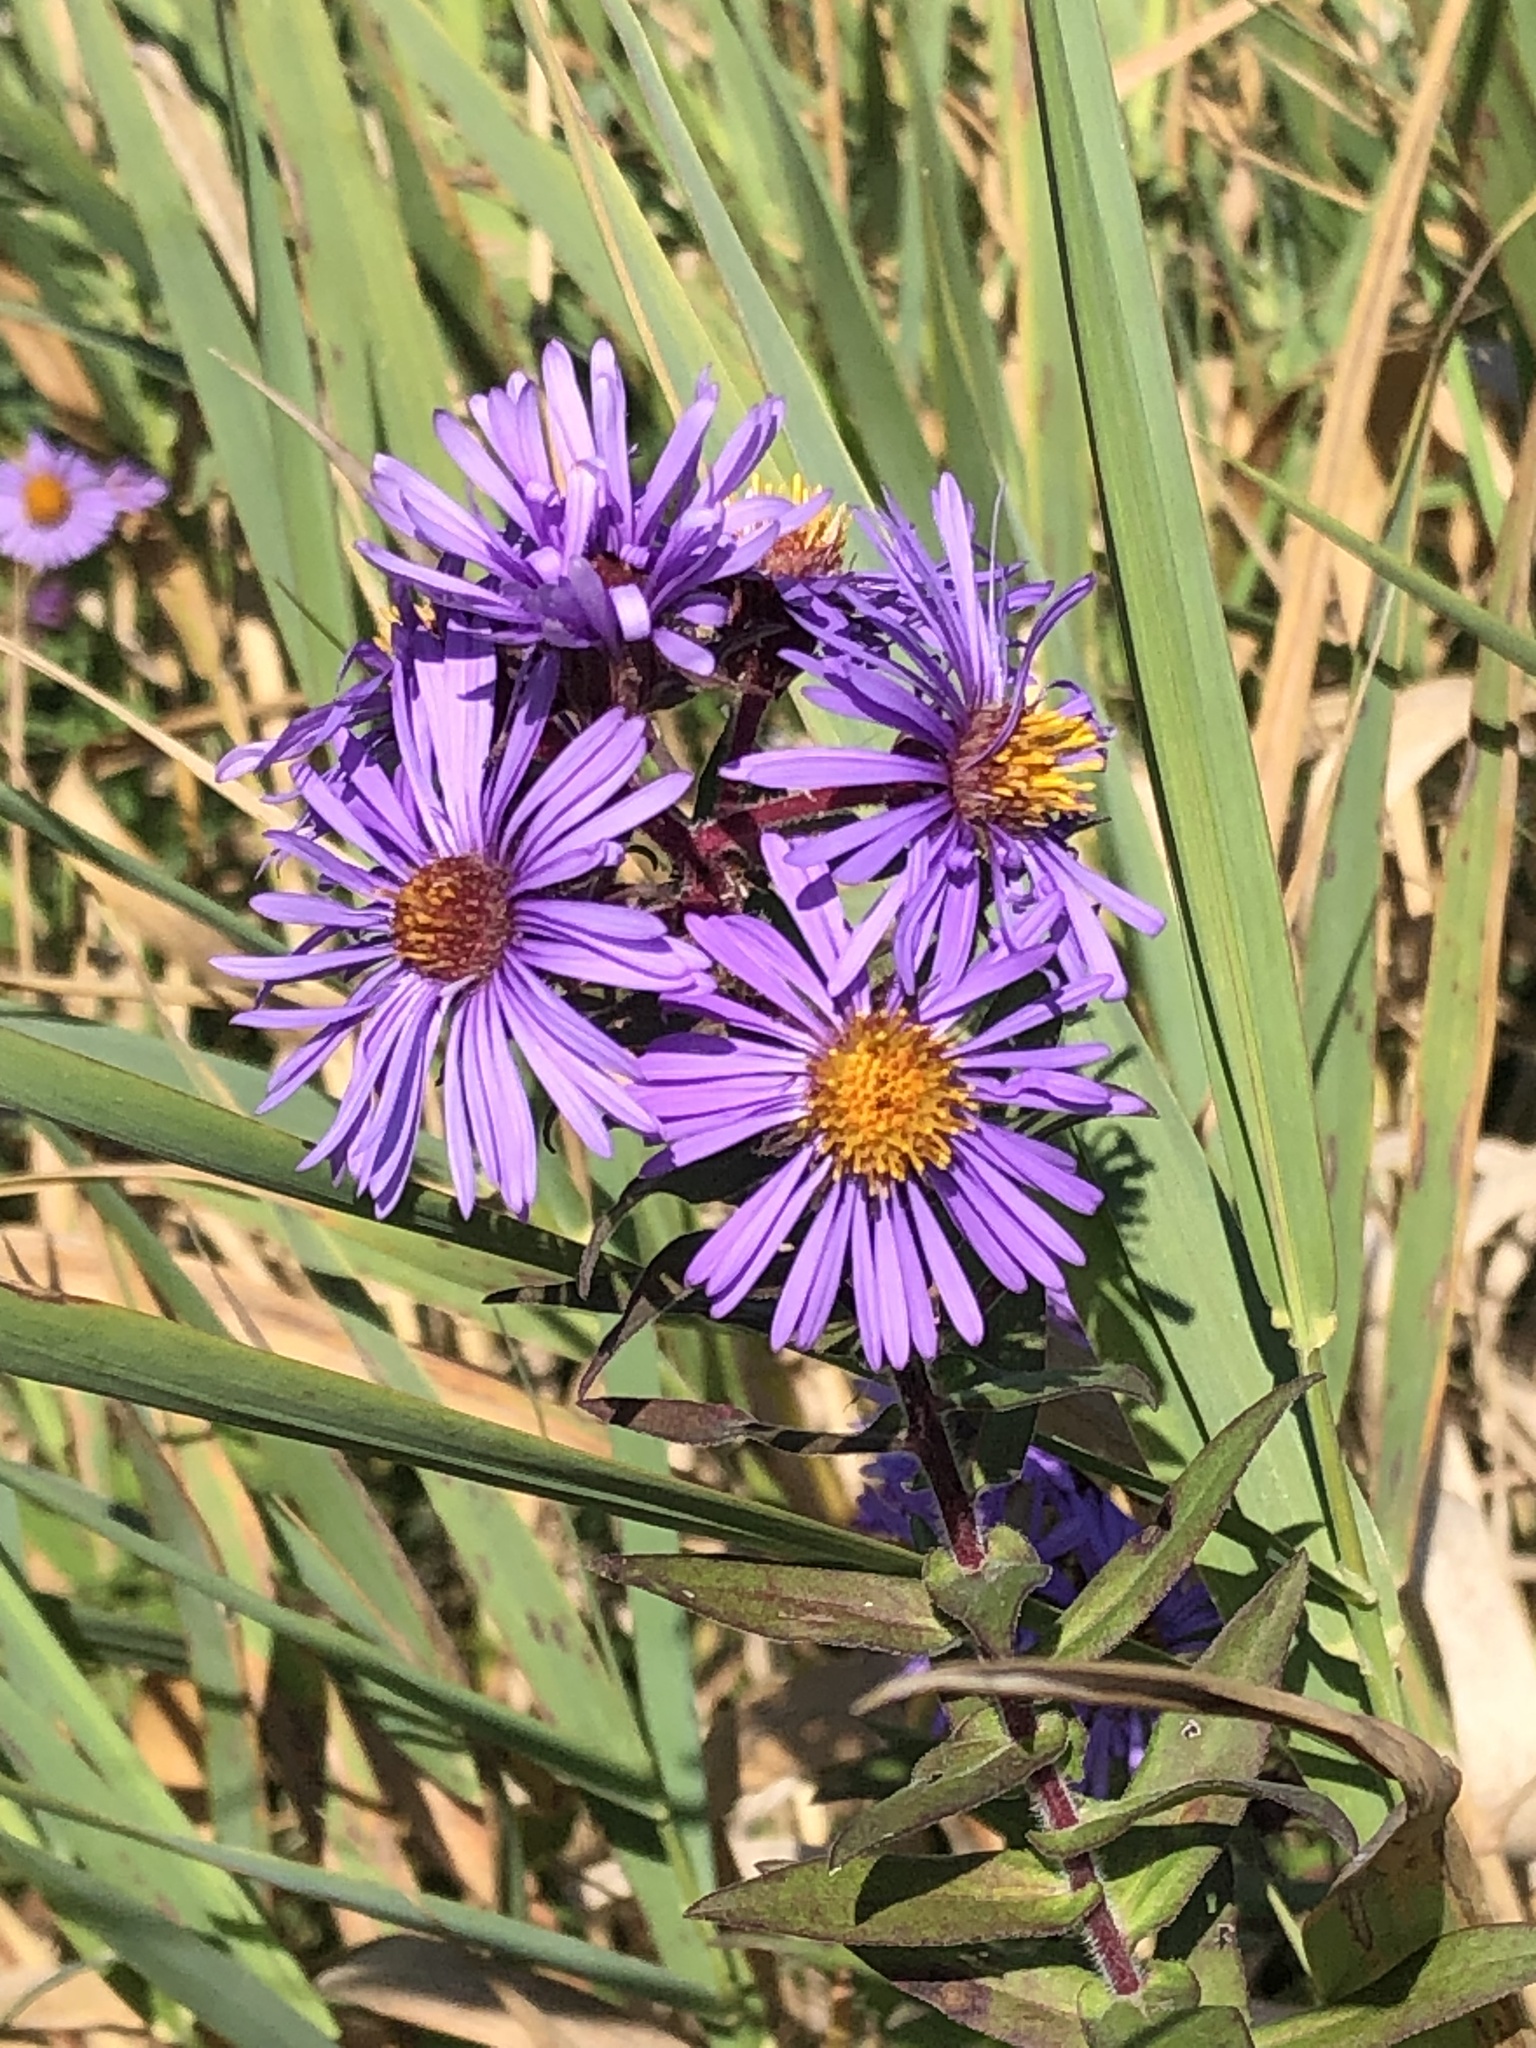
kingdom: Plantae
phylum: Tracheophyta
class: Magnoliopsida
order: Asterales
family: Asteraceae
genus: Symphyotrichum
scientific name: Symphyotrichum novae-angliae
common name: Michaelmas daisy
